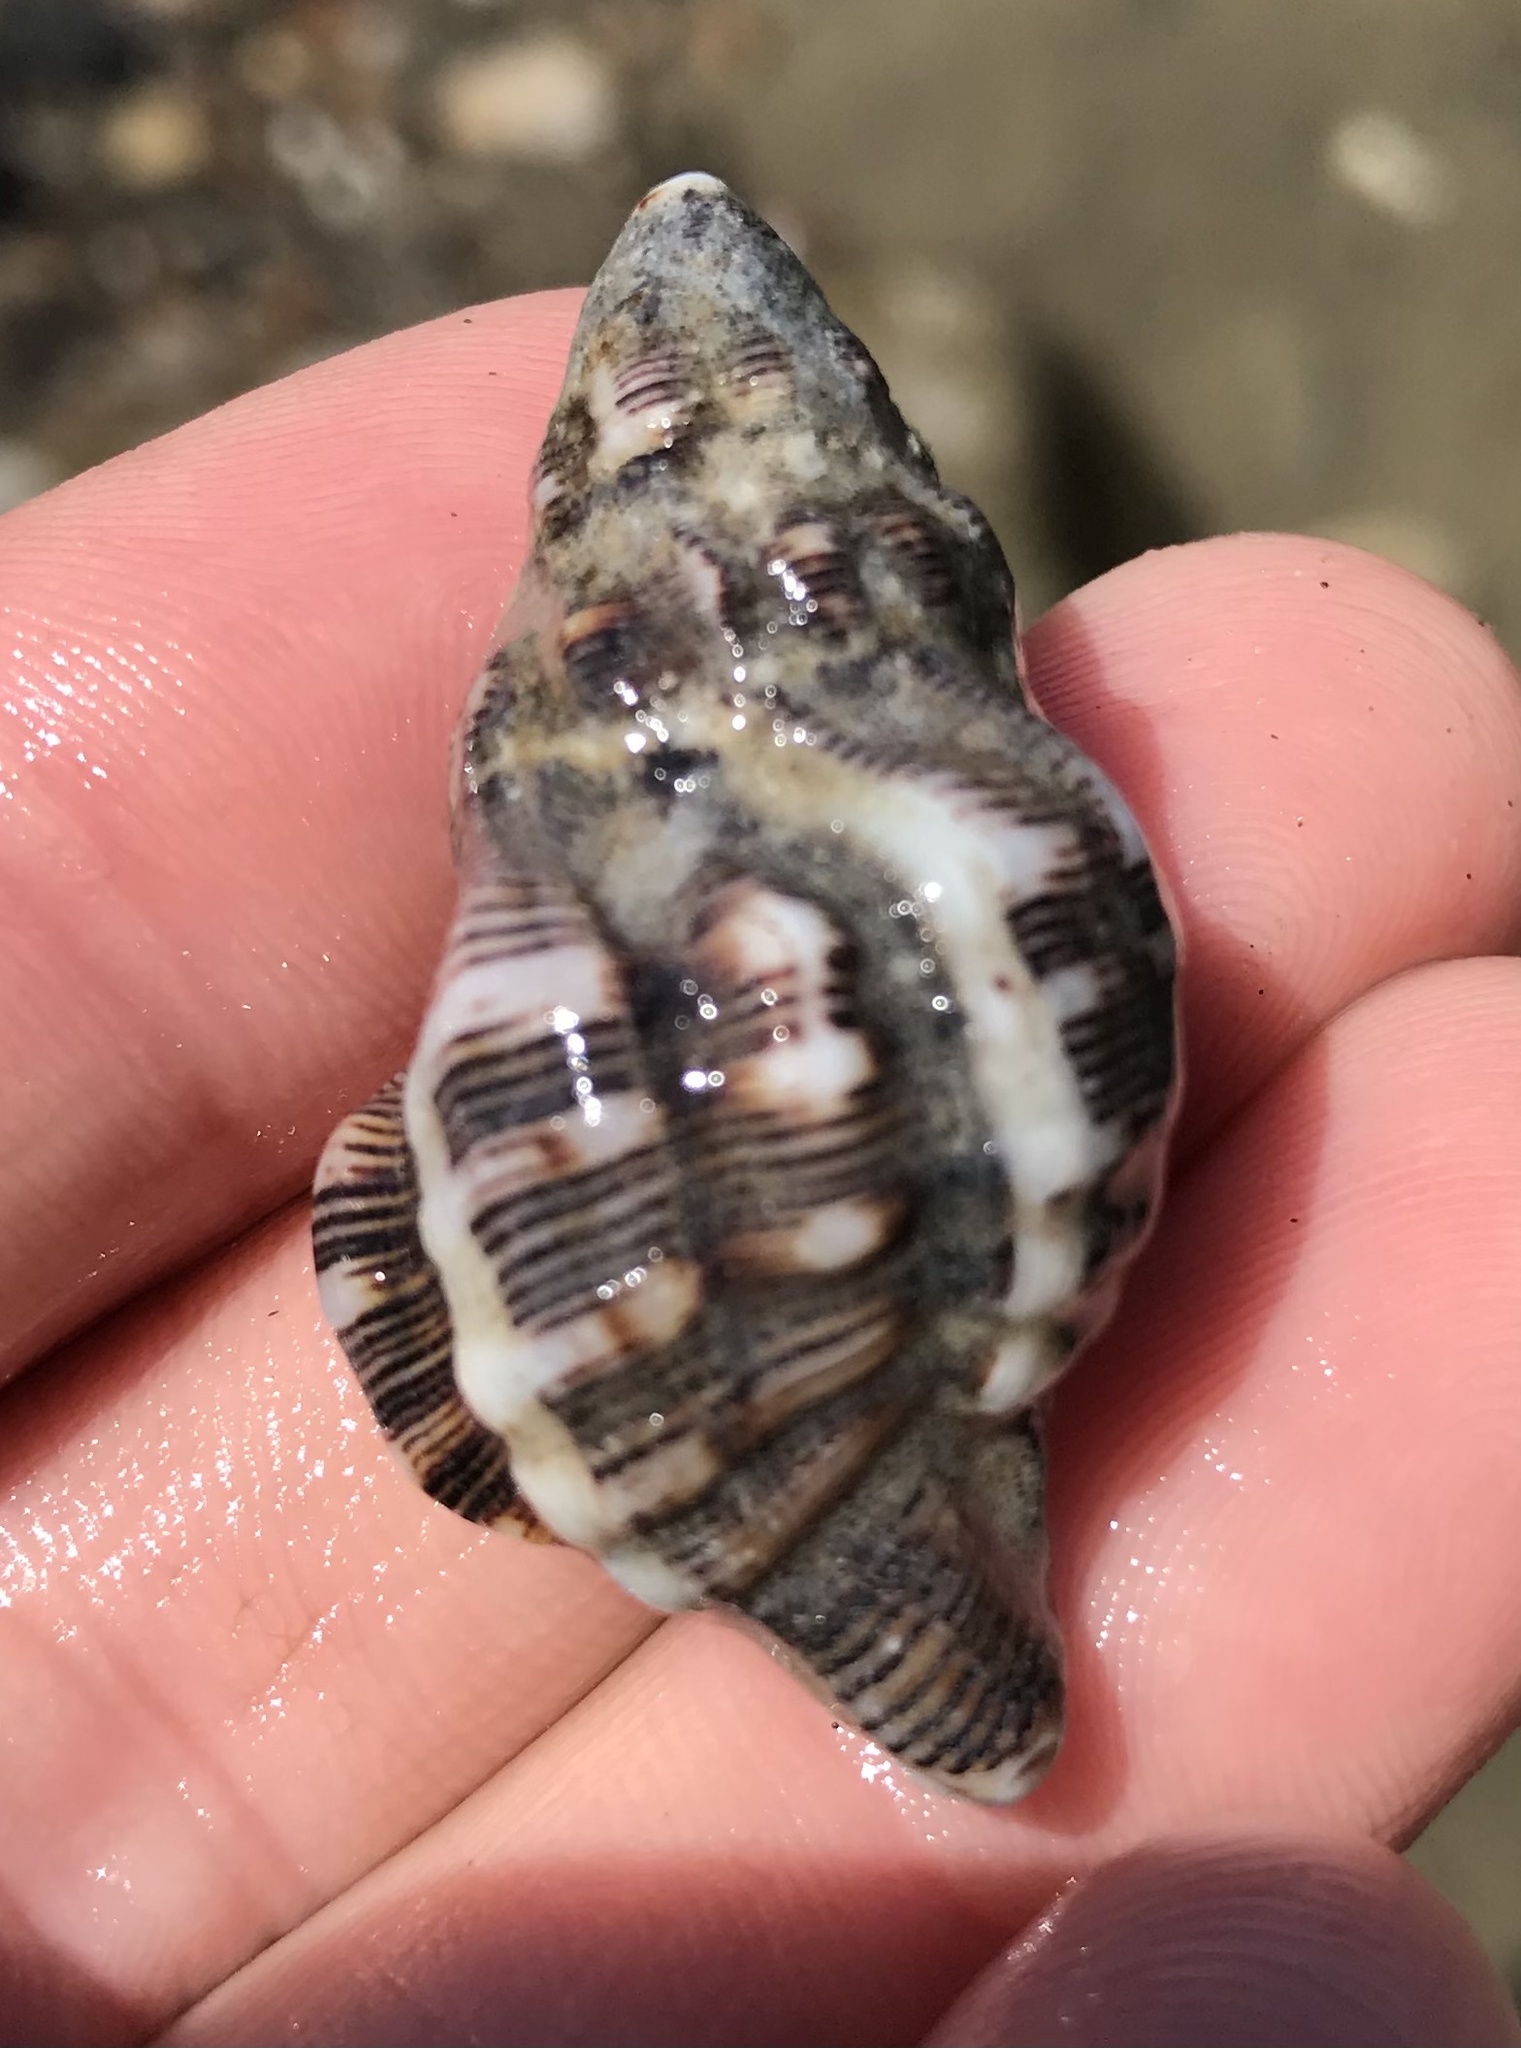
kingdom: Animalia
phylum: Mollusca
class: Gastropoda
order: Neogastropoda
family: Muricidae
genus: Roperia
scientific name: Roperia poulsoni
